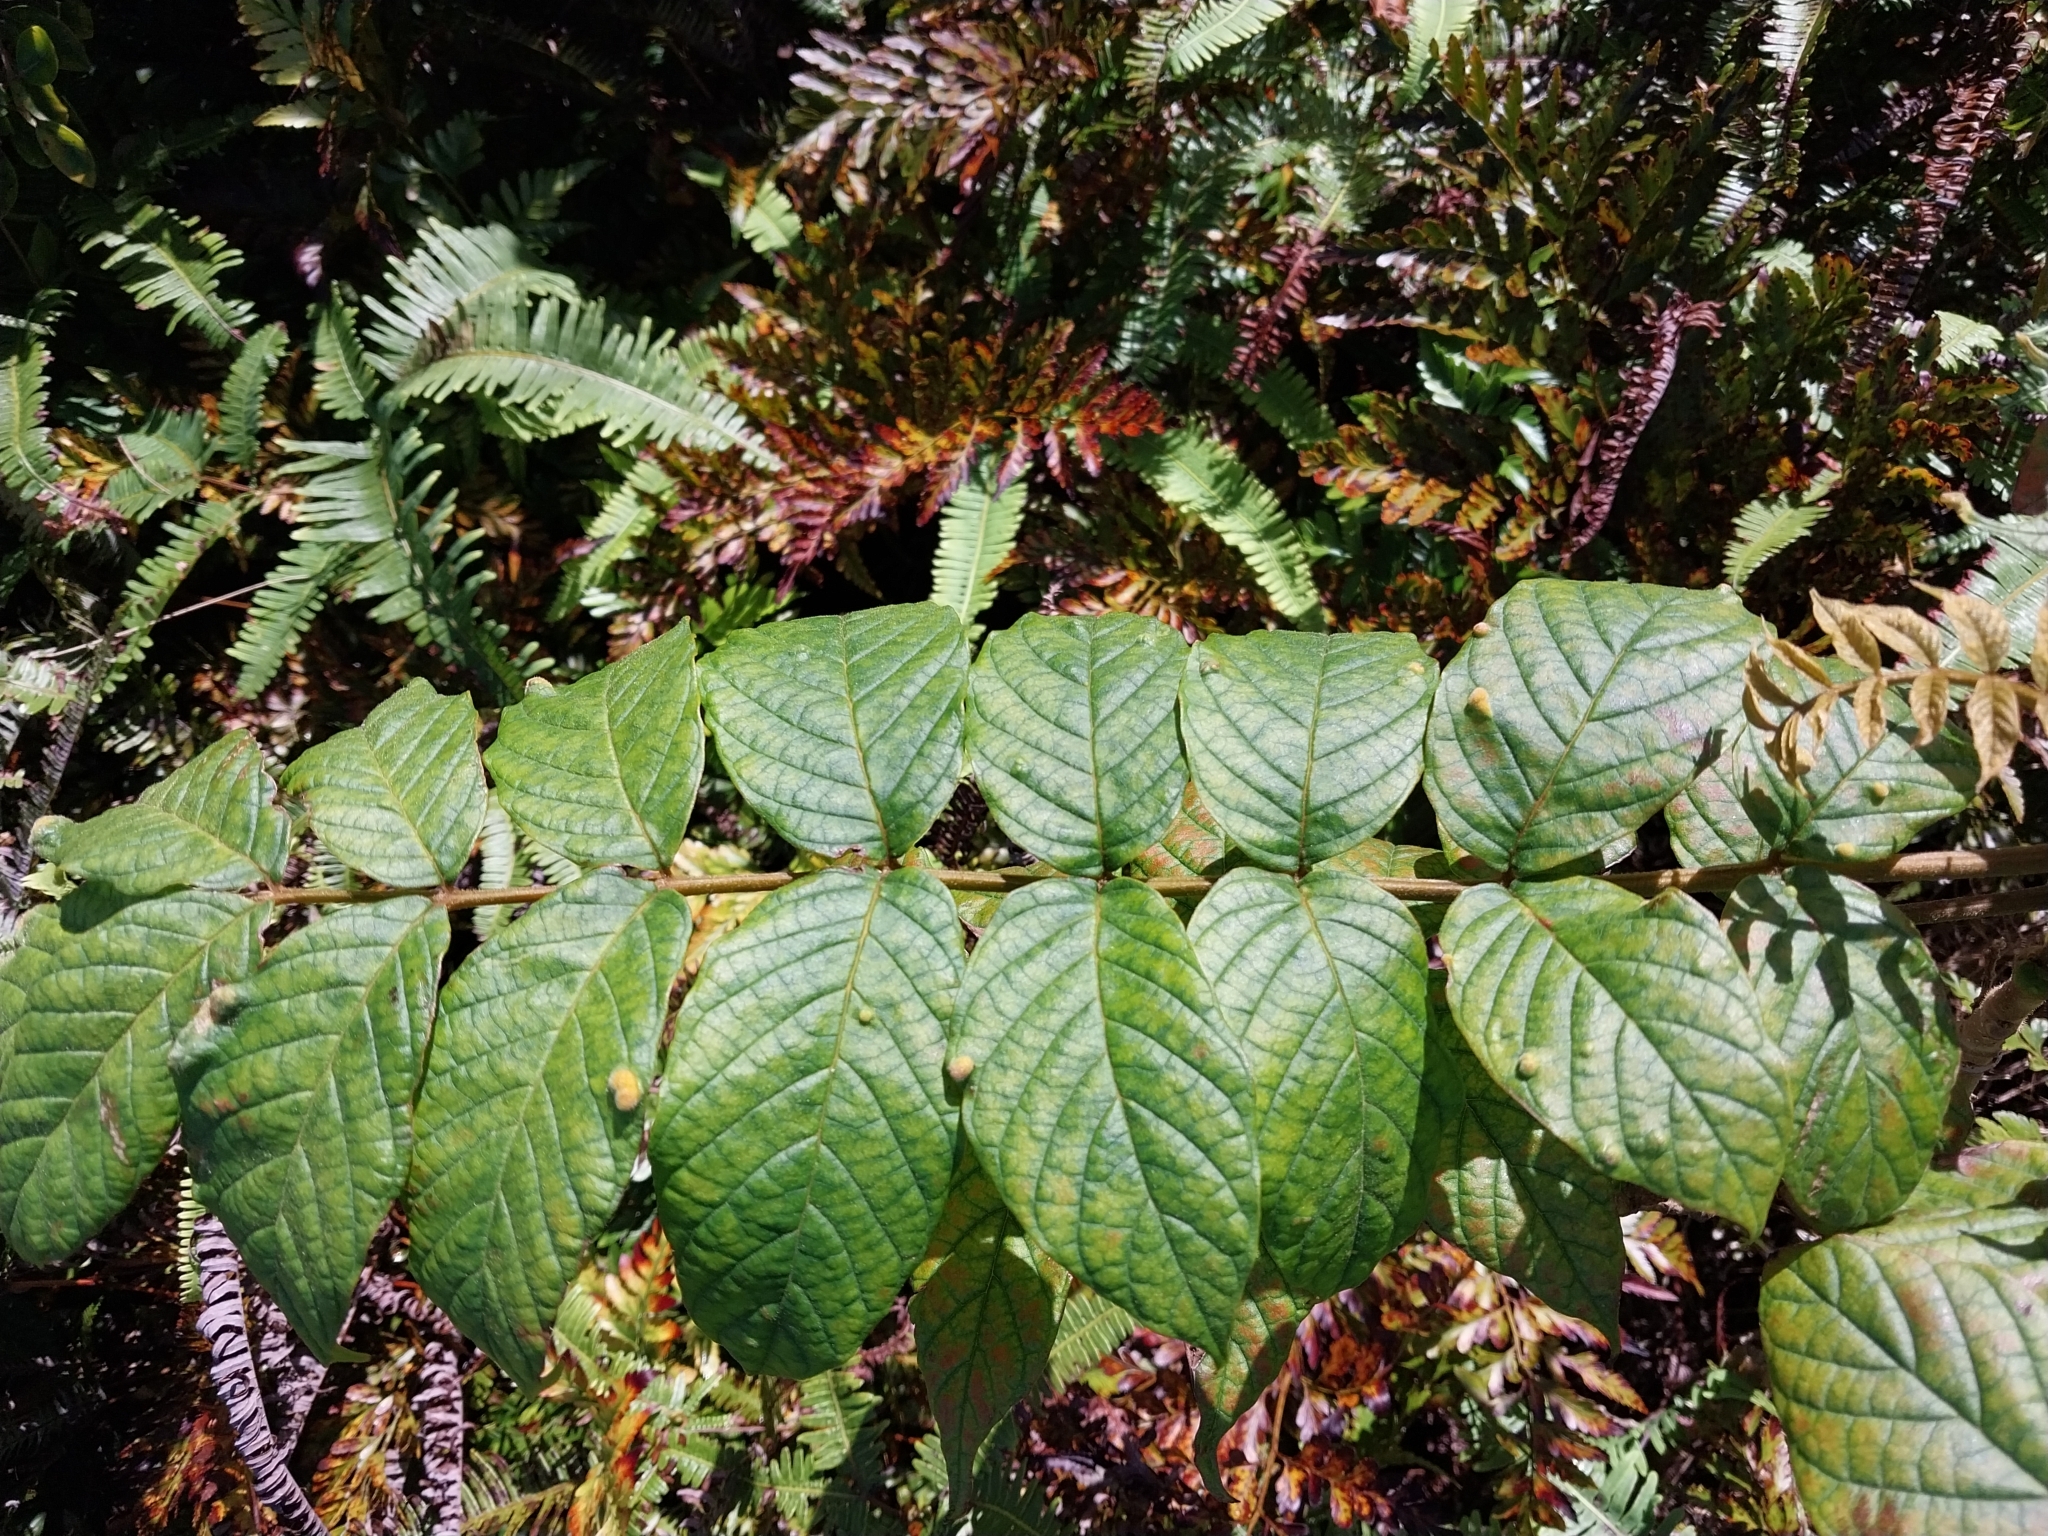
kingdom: Plantae
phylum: Tracheophyta
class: Magnoliopsida
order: Lamiales
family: Bignoniaceae
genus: Spathodea
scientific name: Spathodea campanulata
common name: African tuliptree
